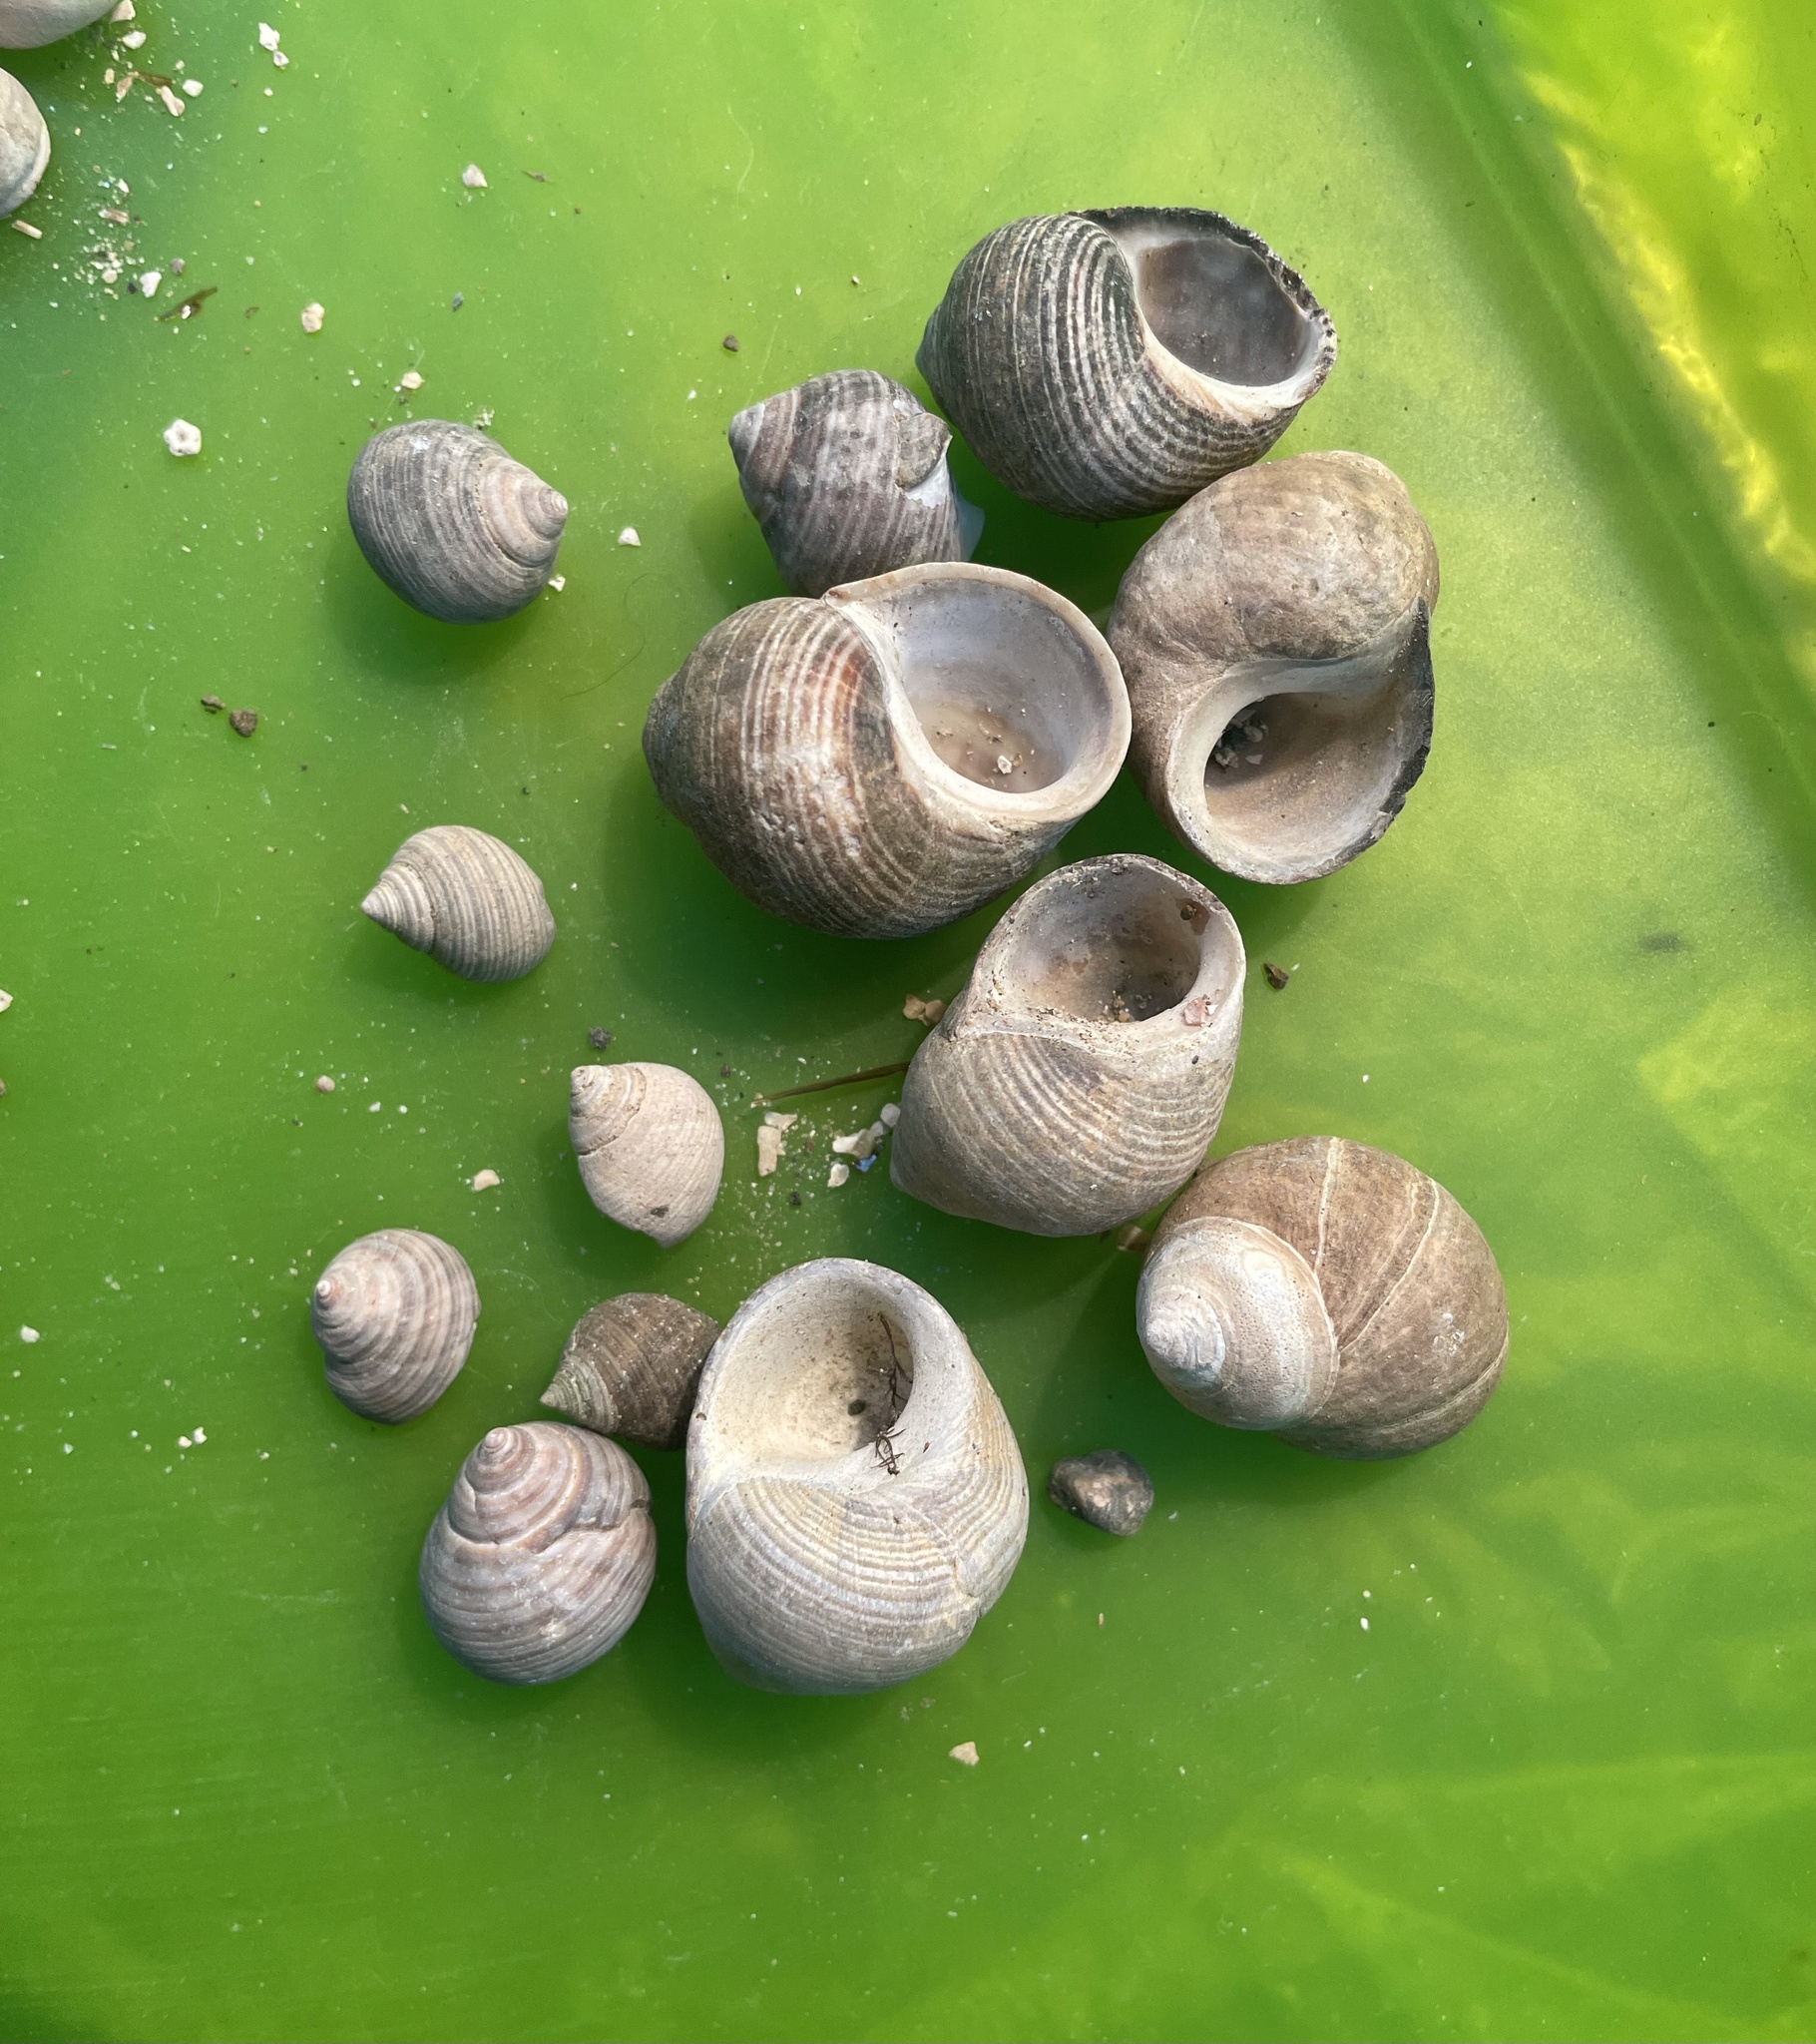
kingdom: Animalia
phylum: Mollusca
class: Gastropoda
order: Littorinimorpha
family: Littorinidae
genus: Littorina
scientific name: Littorina littorea
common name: Common periwinkle
